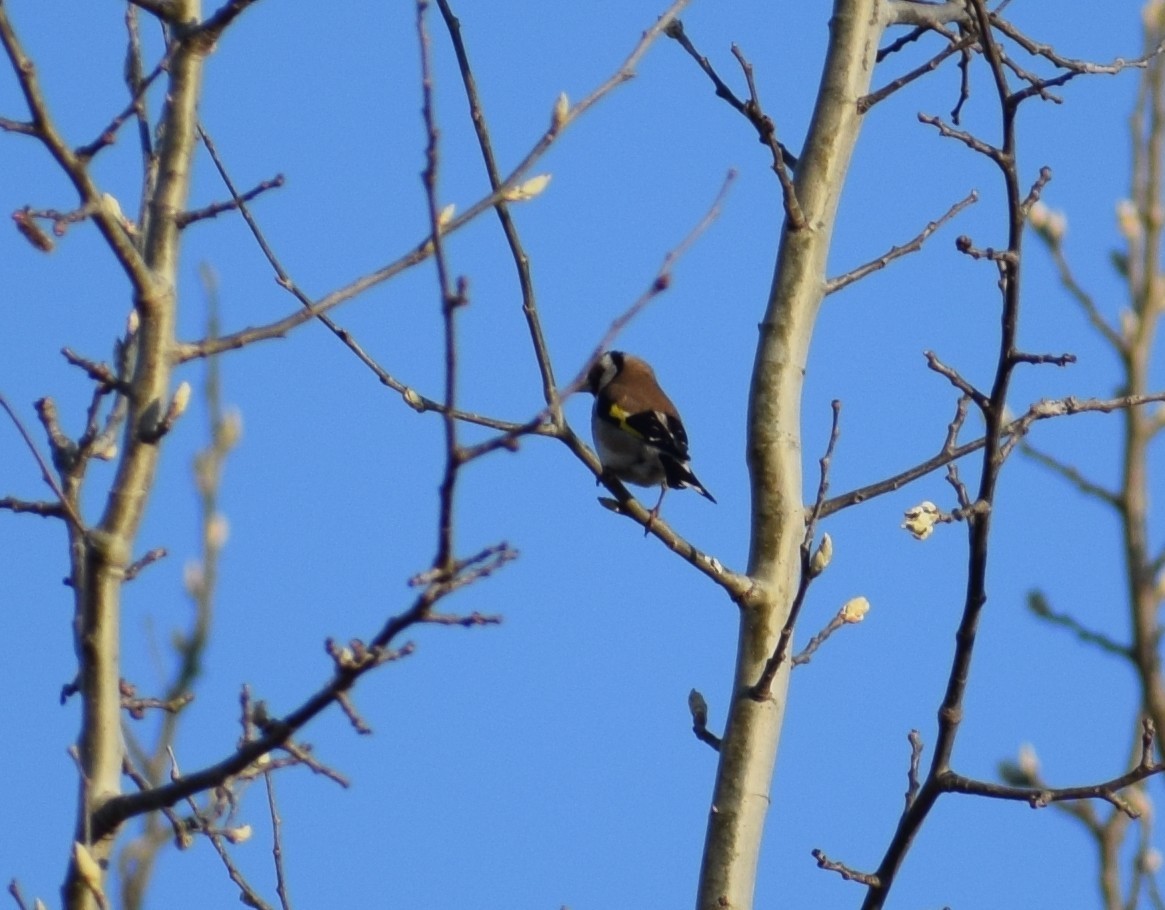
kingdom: Animalia
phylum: Chordata
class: Aves
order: Passeriformes
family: Fringillidae
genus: Carduelis
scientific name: Carduelis carduelis
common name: European goldfinch
